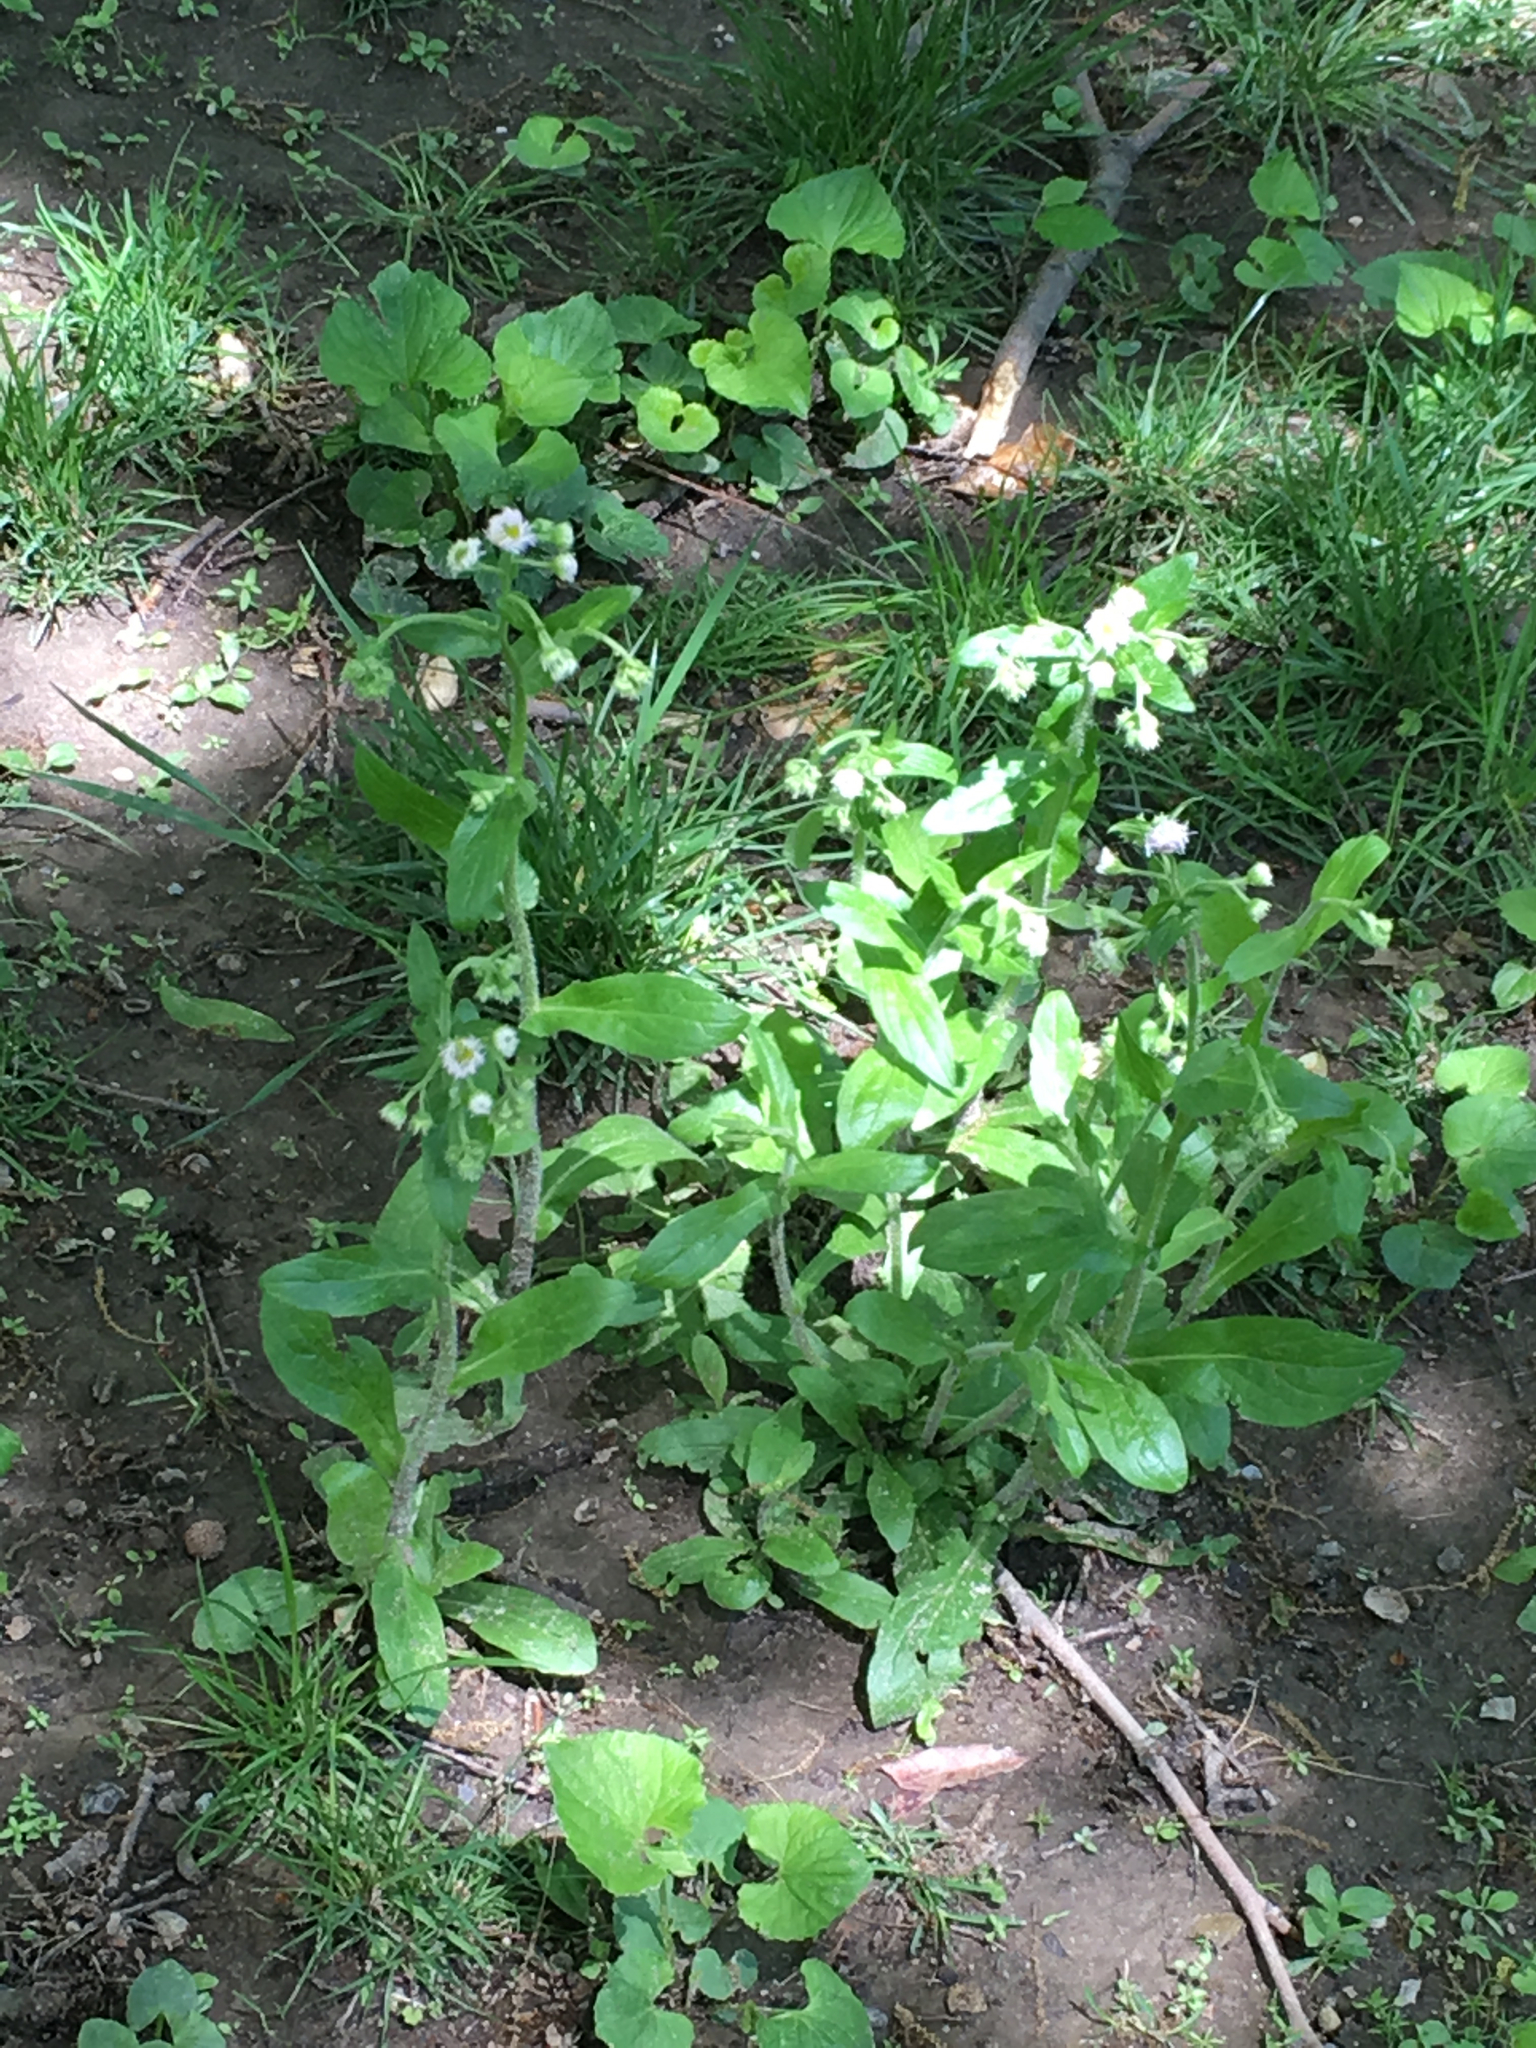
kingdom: Plantae
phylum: Tracheophyta
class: Magnoliopsida
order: Asterales
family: Asteraceae
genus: Erigeron
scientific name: Erigeron annuus
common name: Tall fleabane
